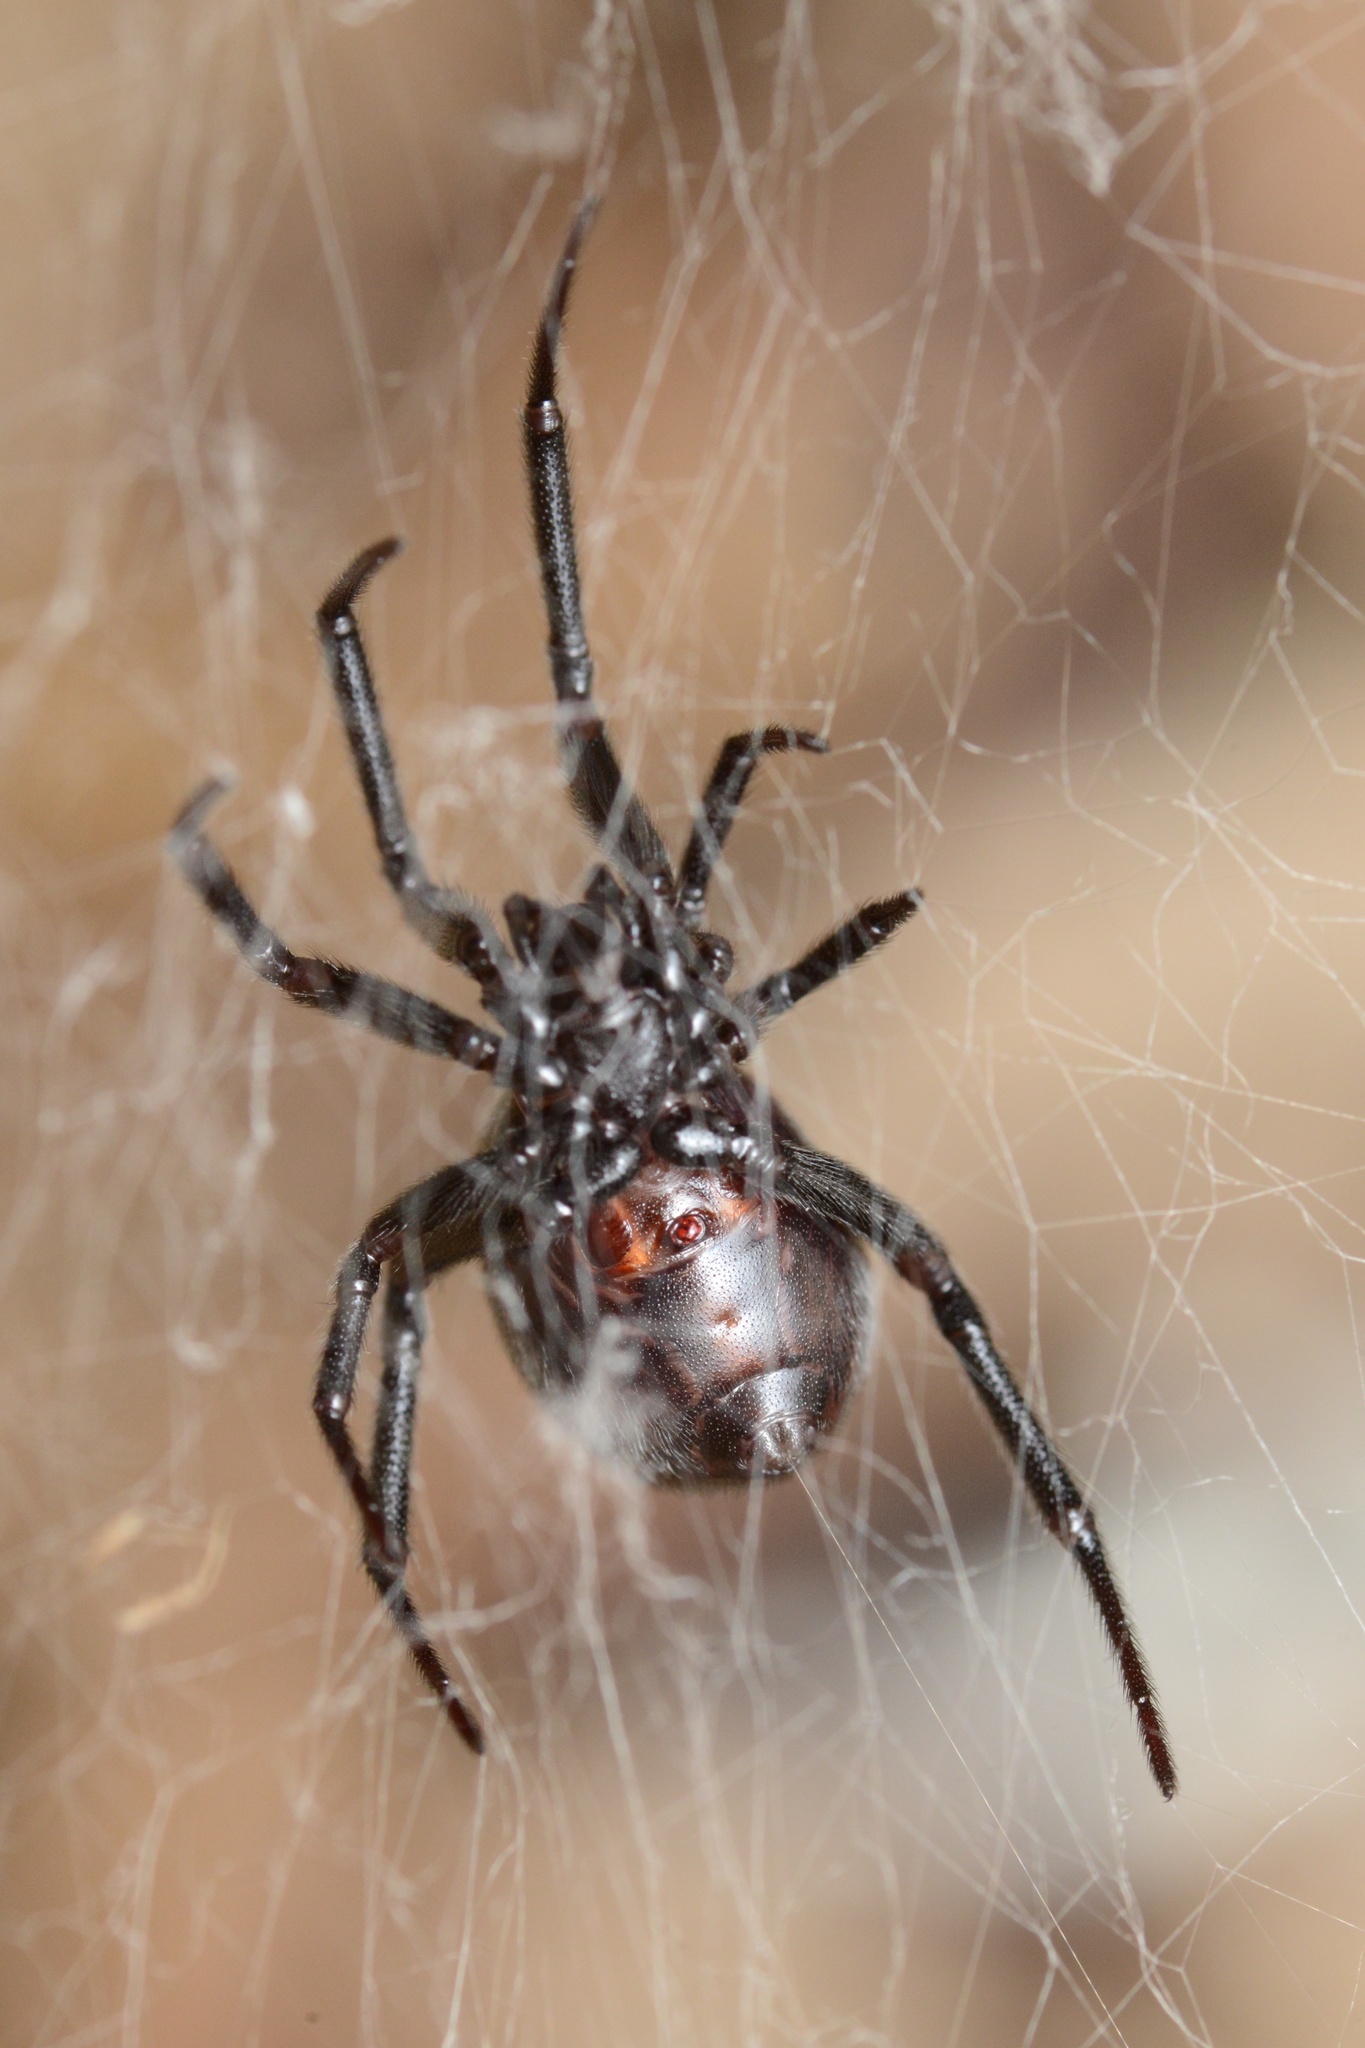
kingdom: Animalia
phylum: Arthropoda
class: Arachnida
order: Araneae
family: Theridiidae
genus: Steatoda
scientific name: Steatoda capensis
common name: Cobweb weaver
